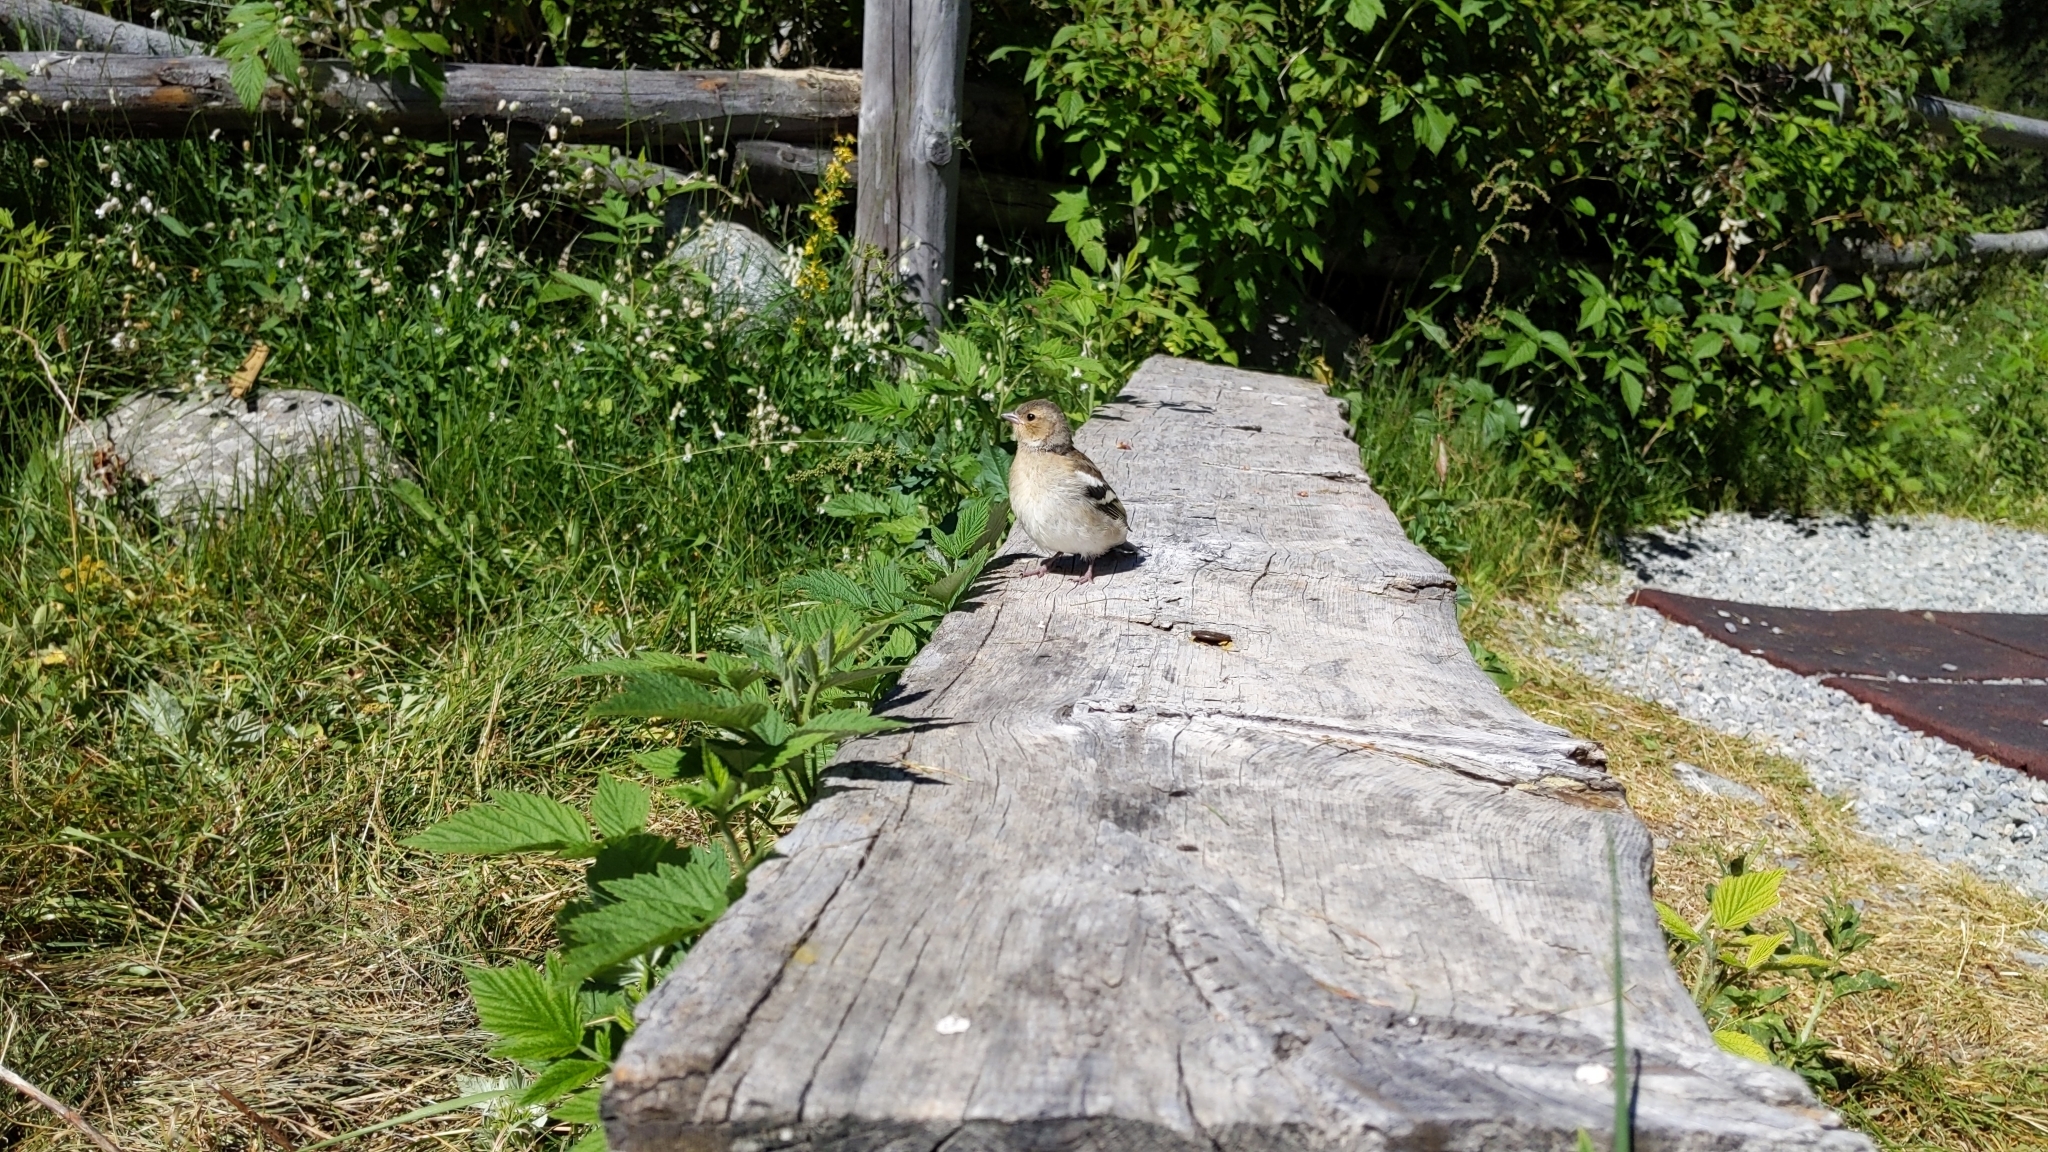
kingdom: Animalia
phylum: Chordata
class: Aves
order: Passeriformes
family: Fringillidae
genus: Fringilla
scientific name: Fringilla coelebs
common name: Common chaffinch
